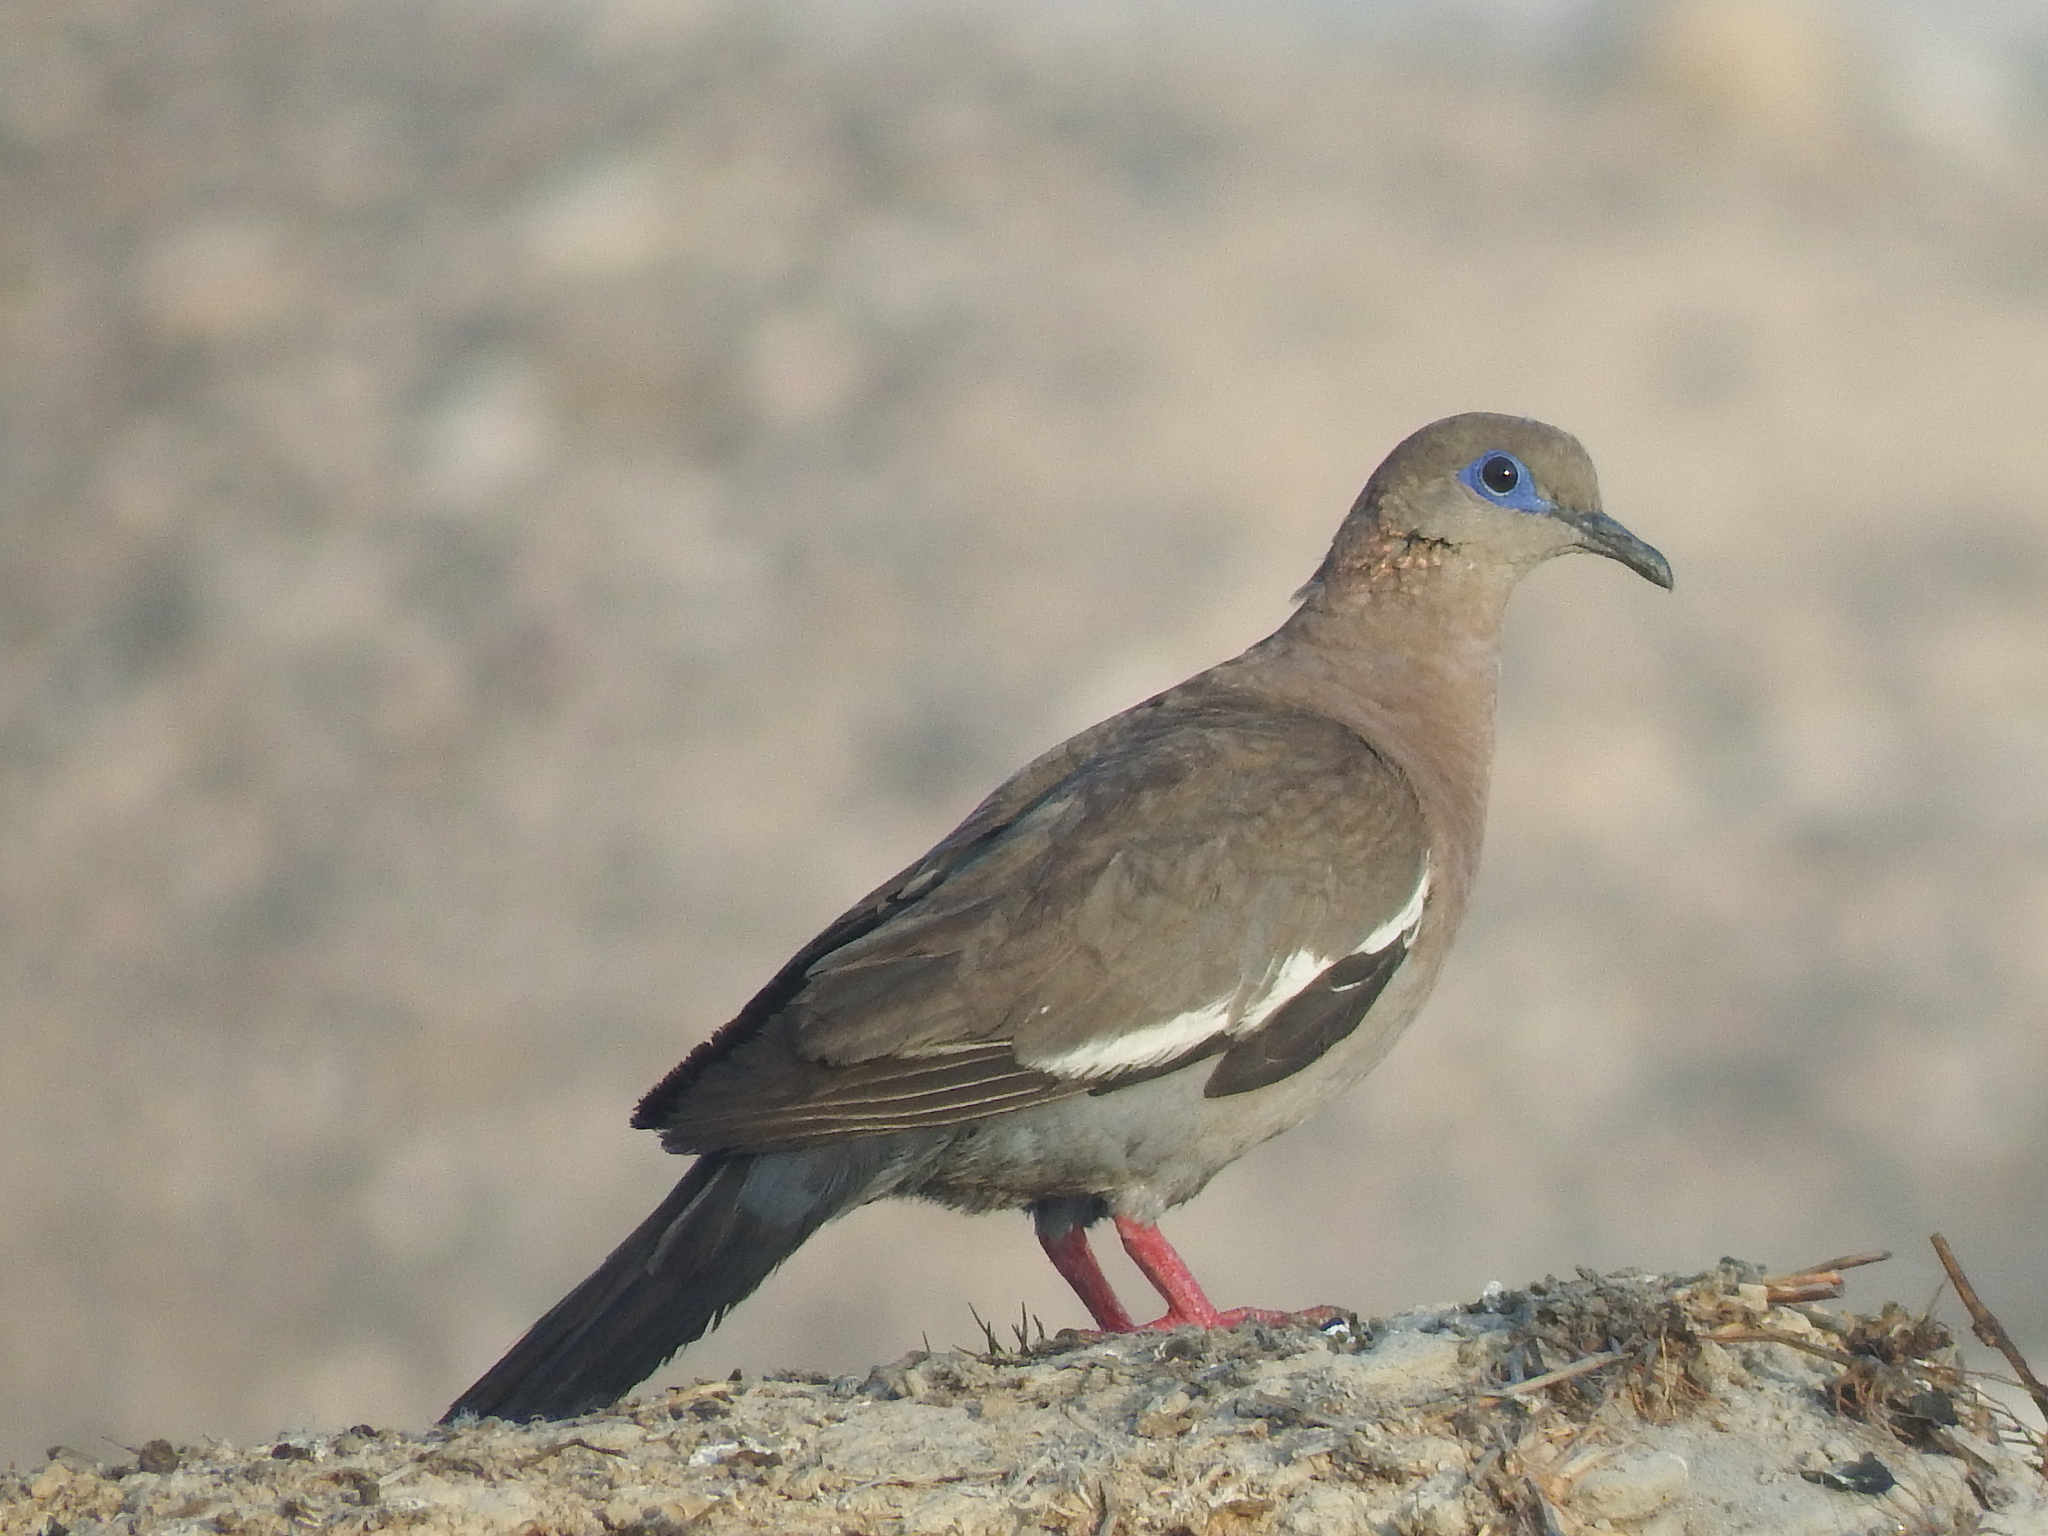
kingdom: Animalia
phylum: Chordata
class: Aves
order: Columbiformes
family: Columbidae
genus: Zenaida
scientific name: Zenaida meloda
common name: West peruvian dove
